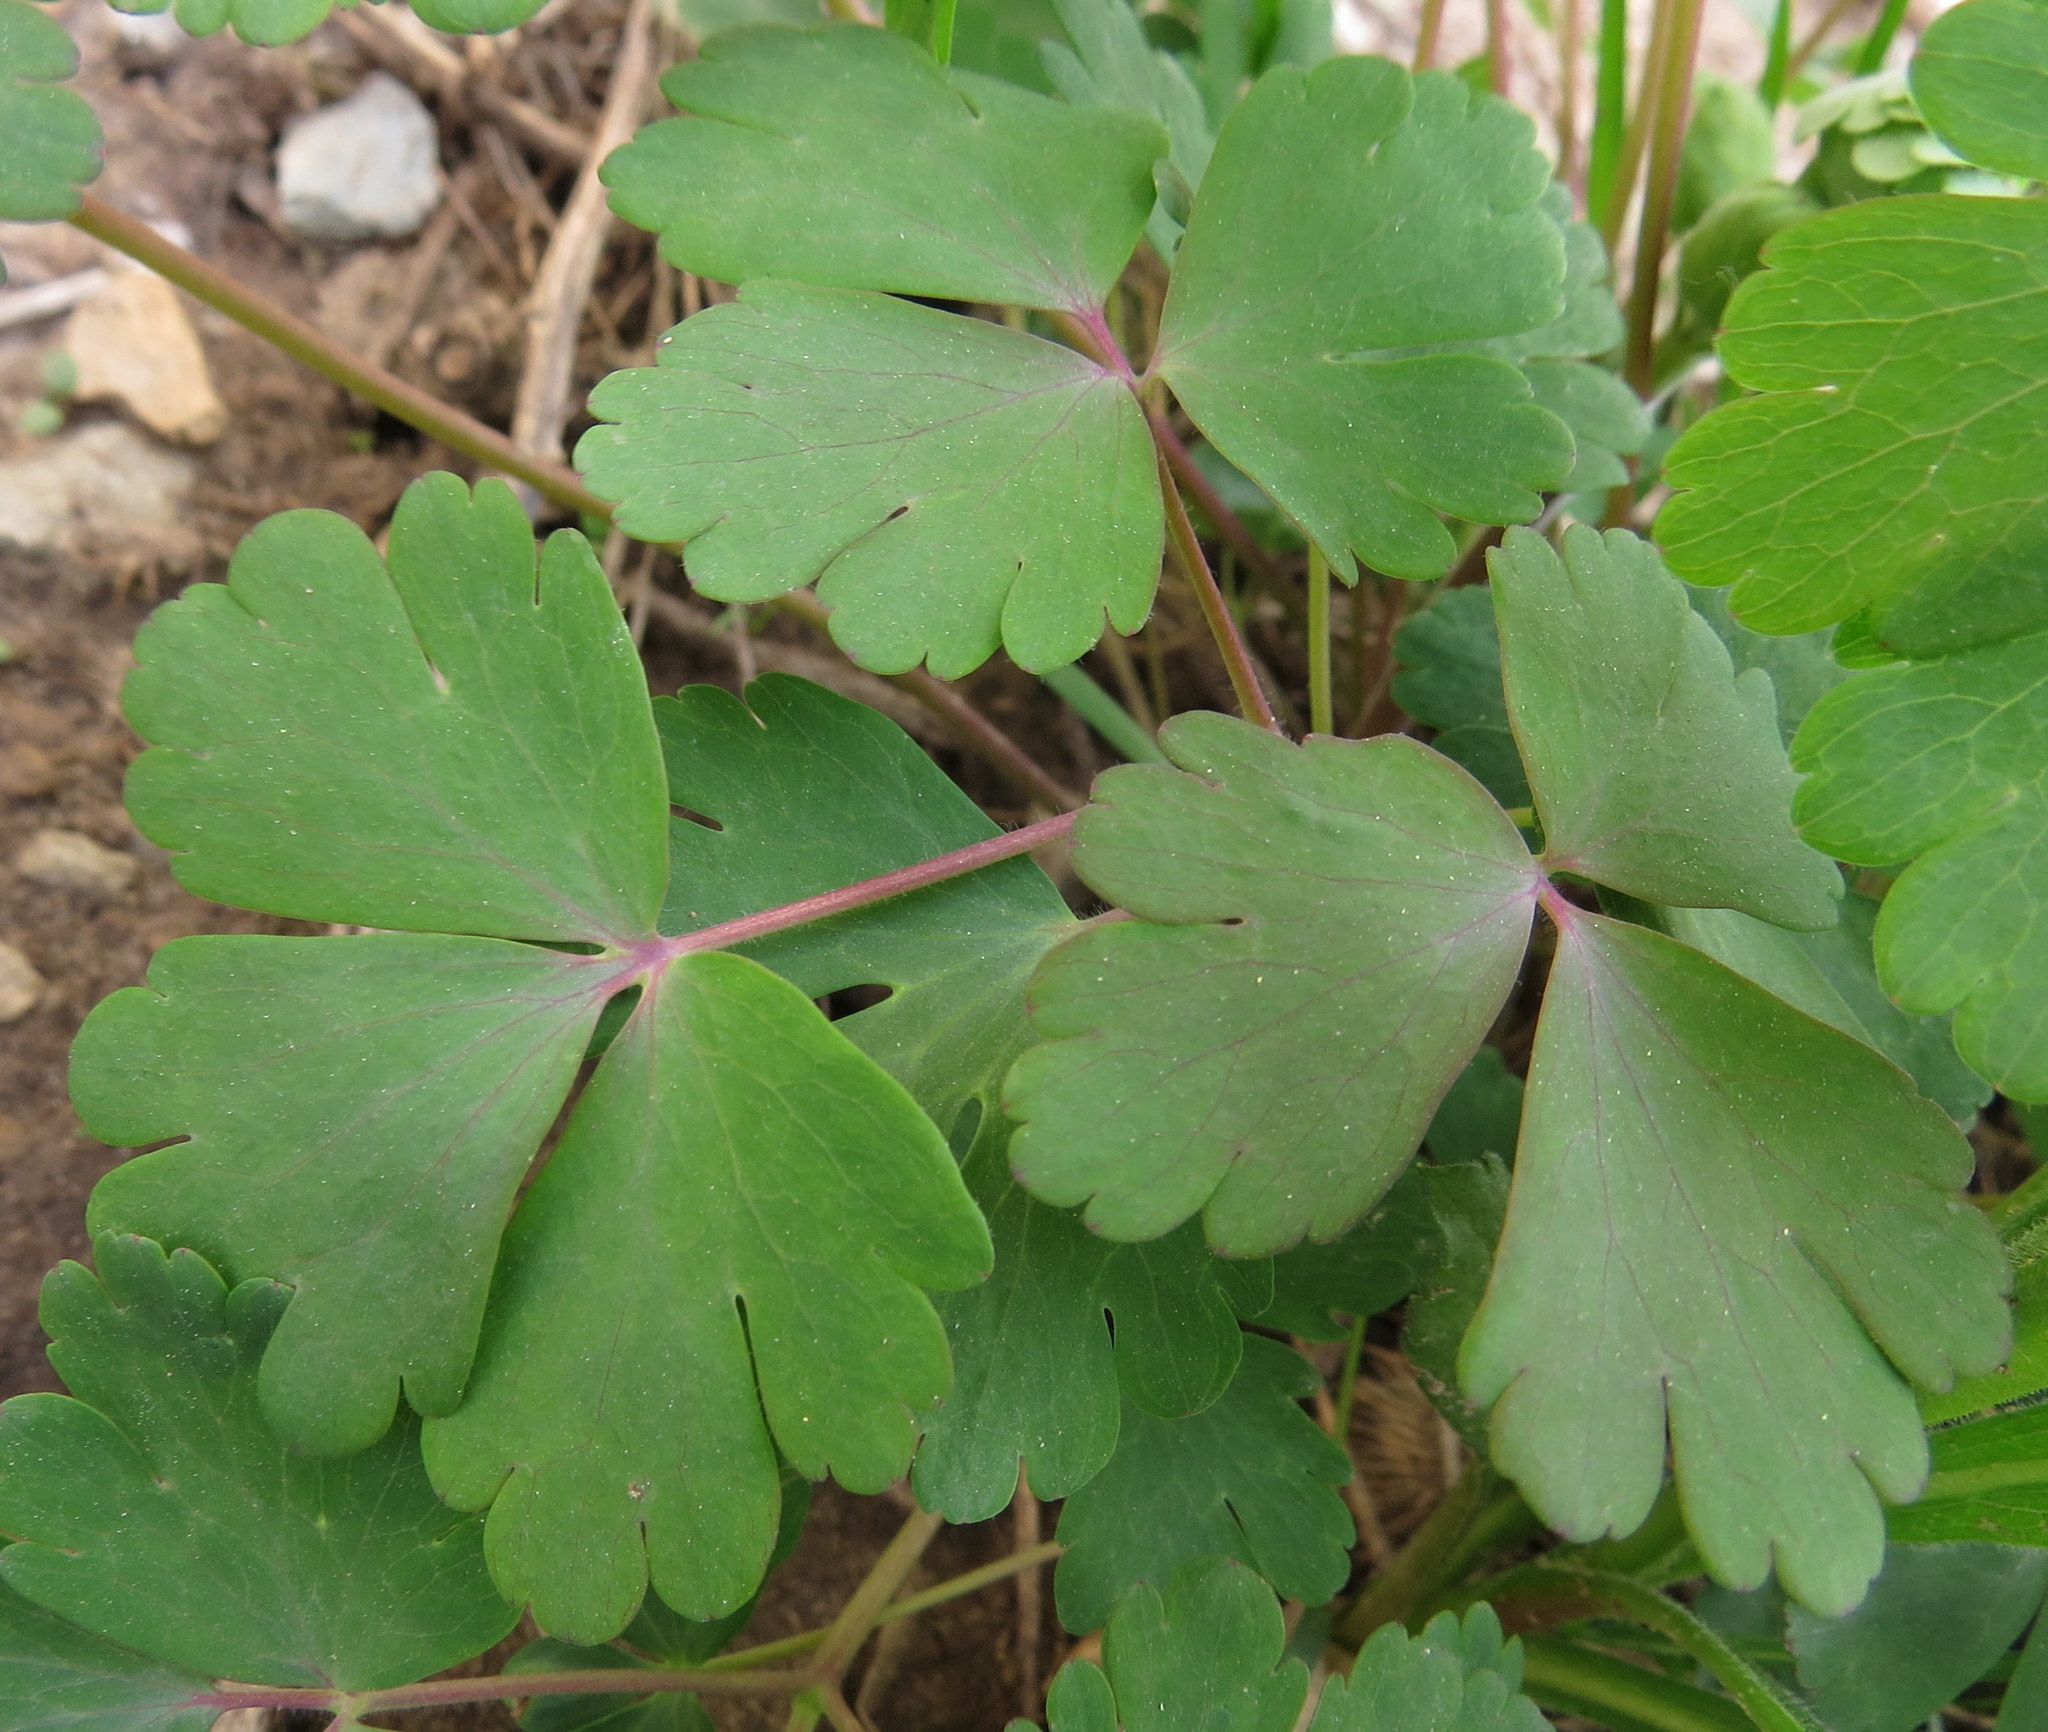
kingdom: Plantae
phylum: Tracheophyta
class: Magnoliopsida
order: Ranunculales
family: Ranunculaceae
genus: Aquilegia
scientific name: Aquilegia canadensis
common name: American columbine
